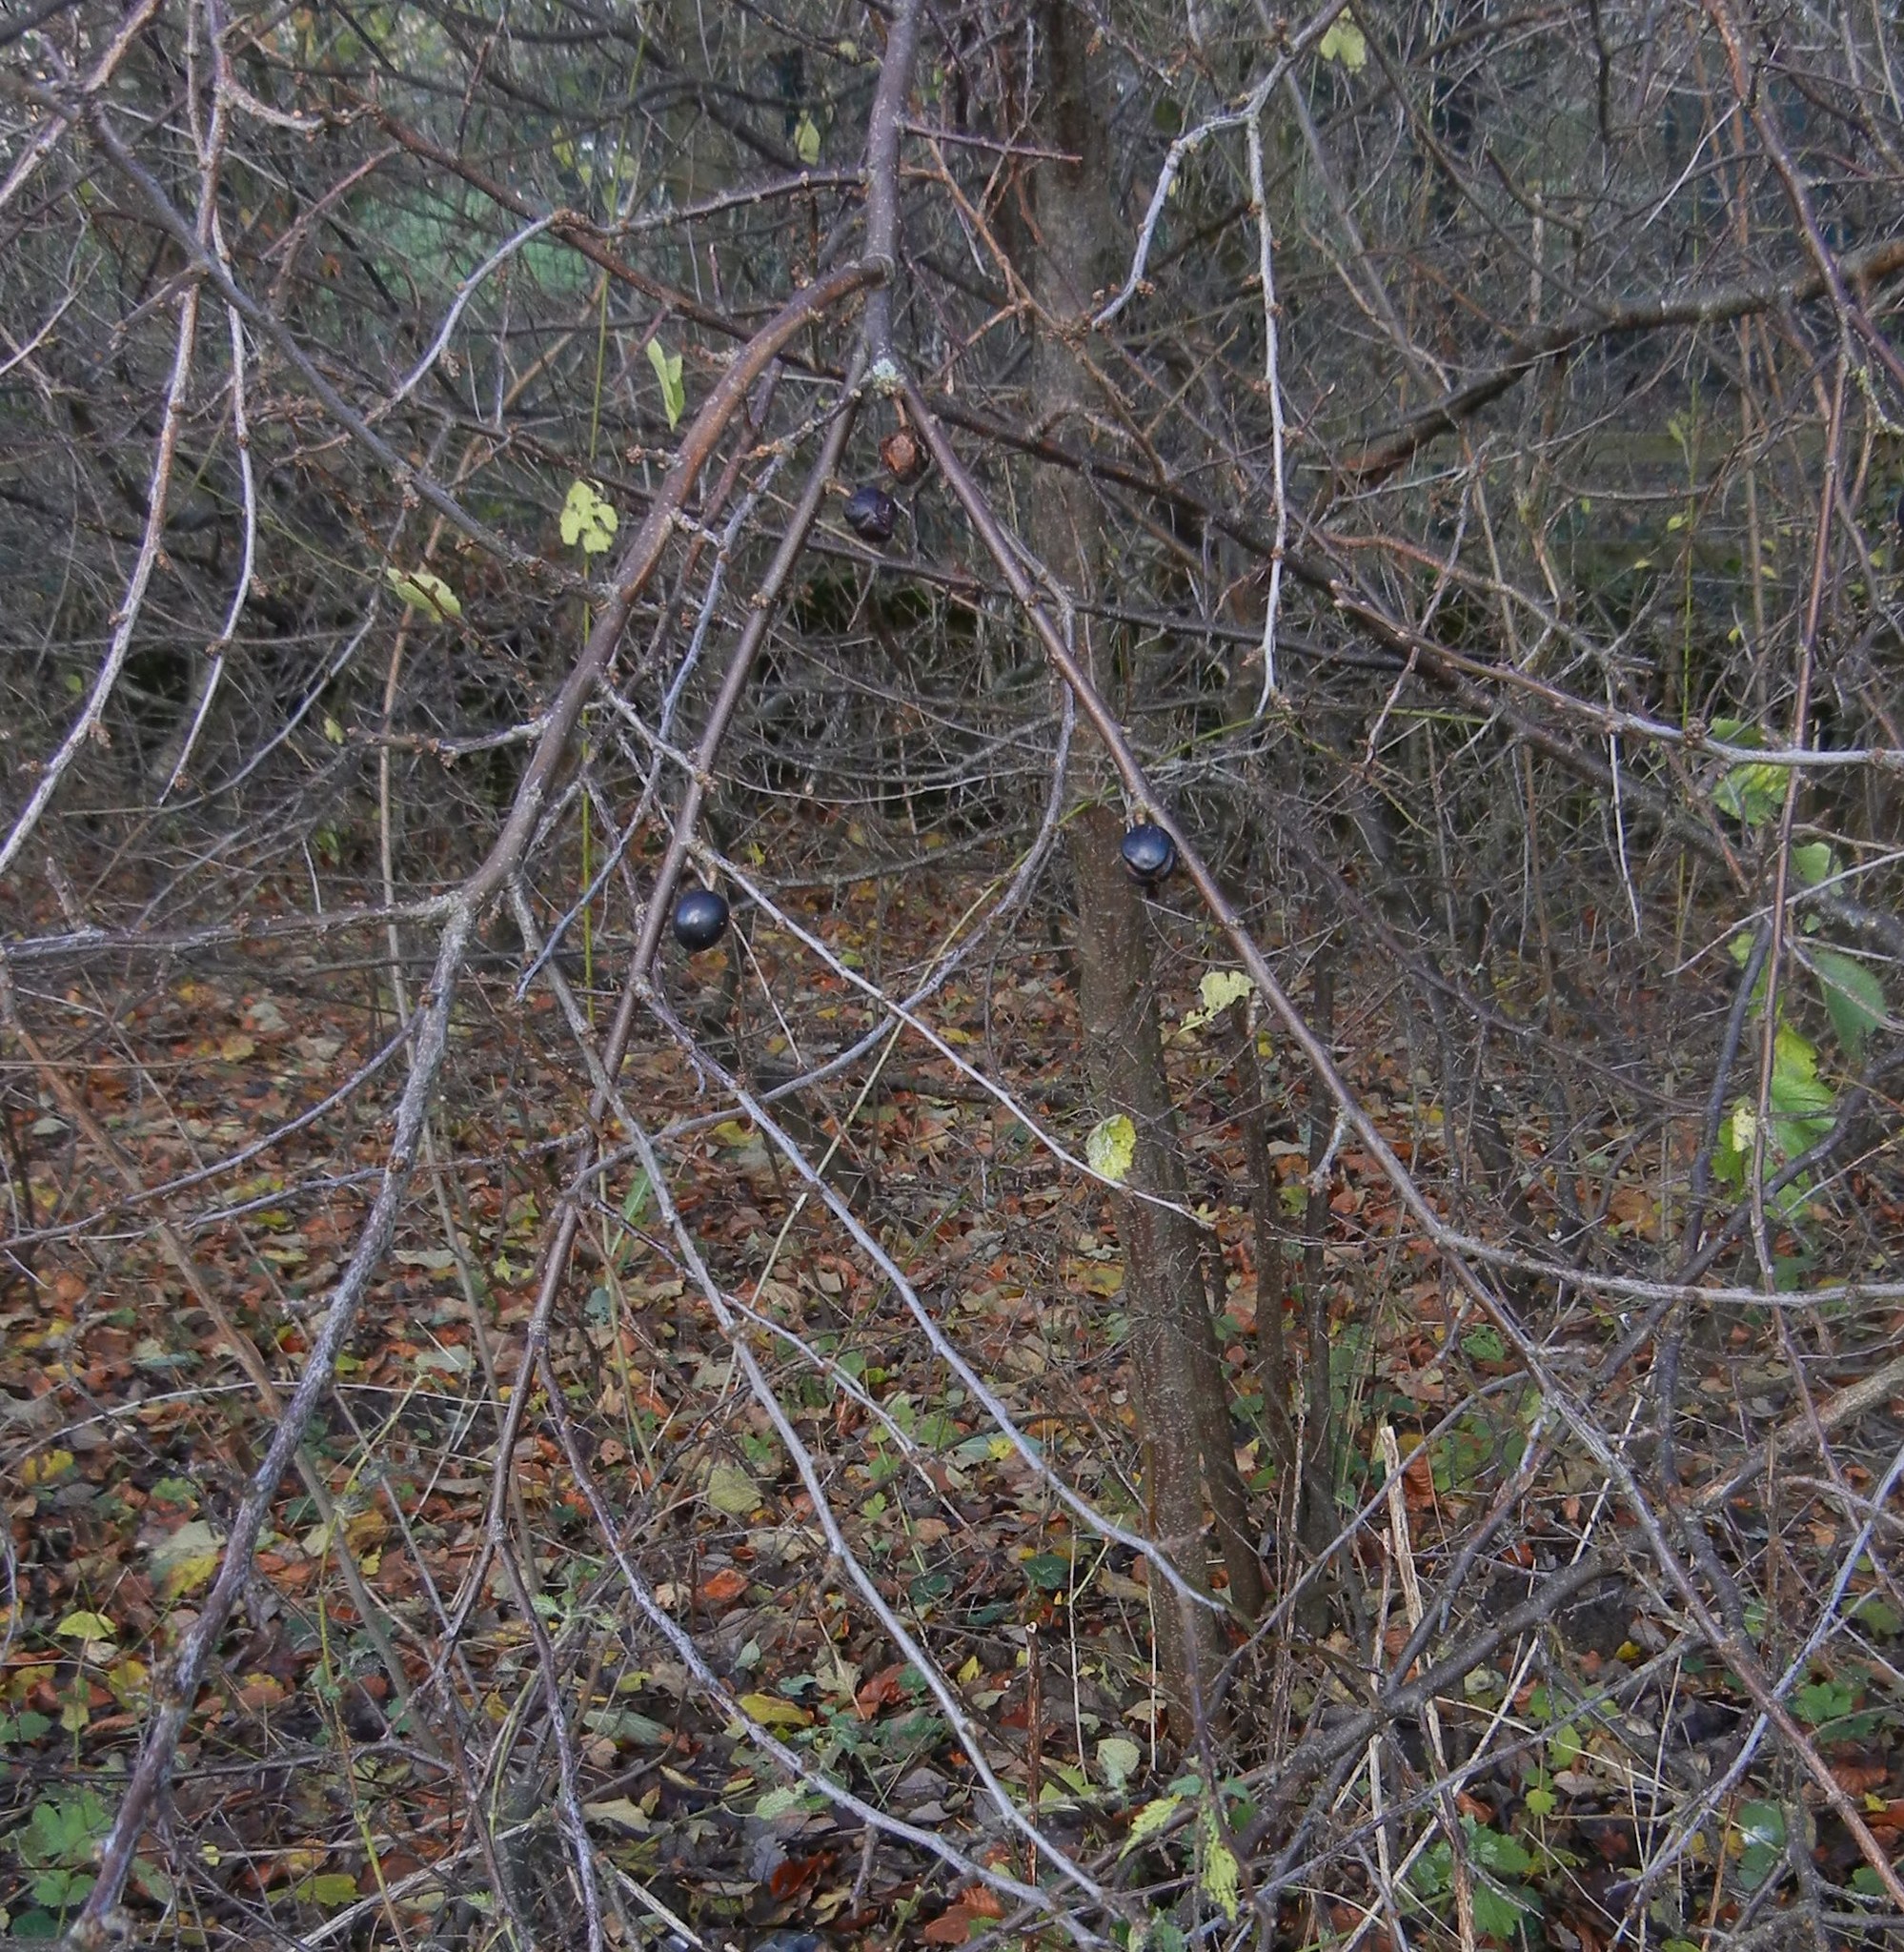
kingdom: Plantae
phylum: Tracheophyta
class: Magnoliopsida
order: Rosales
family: Rosaceae
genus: Prunus
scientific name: Prunus spinosa
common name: Blackthorn
